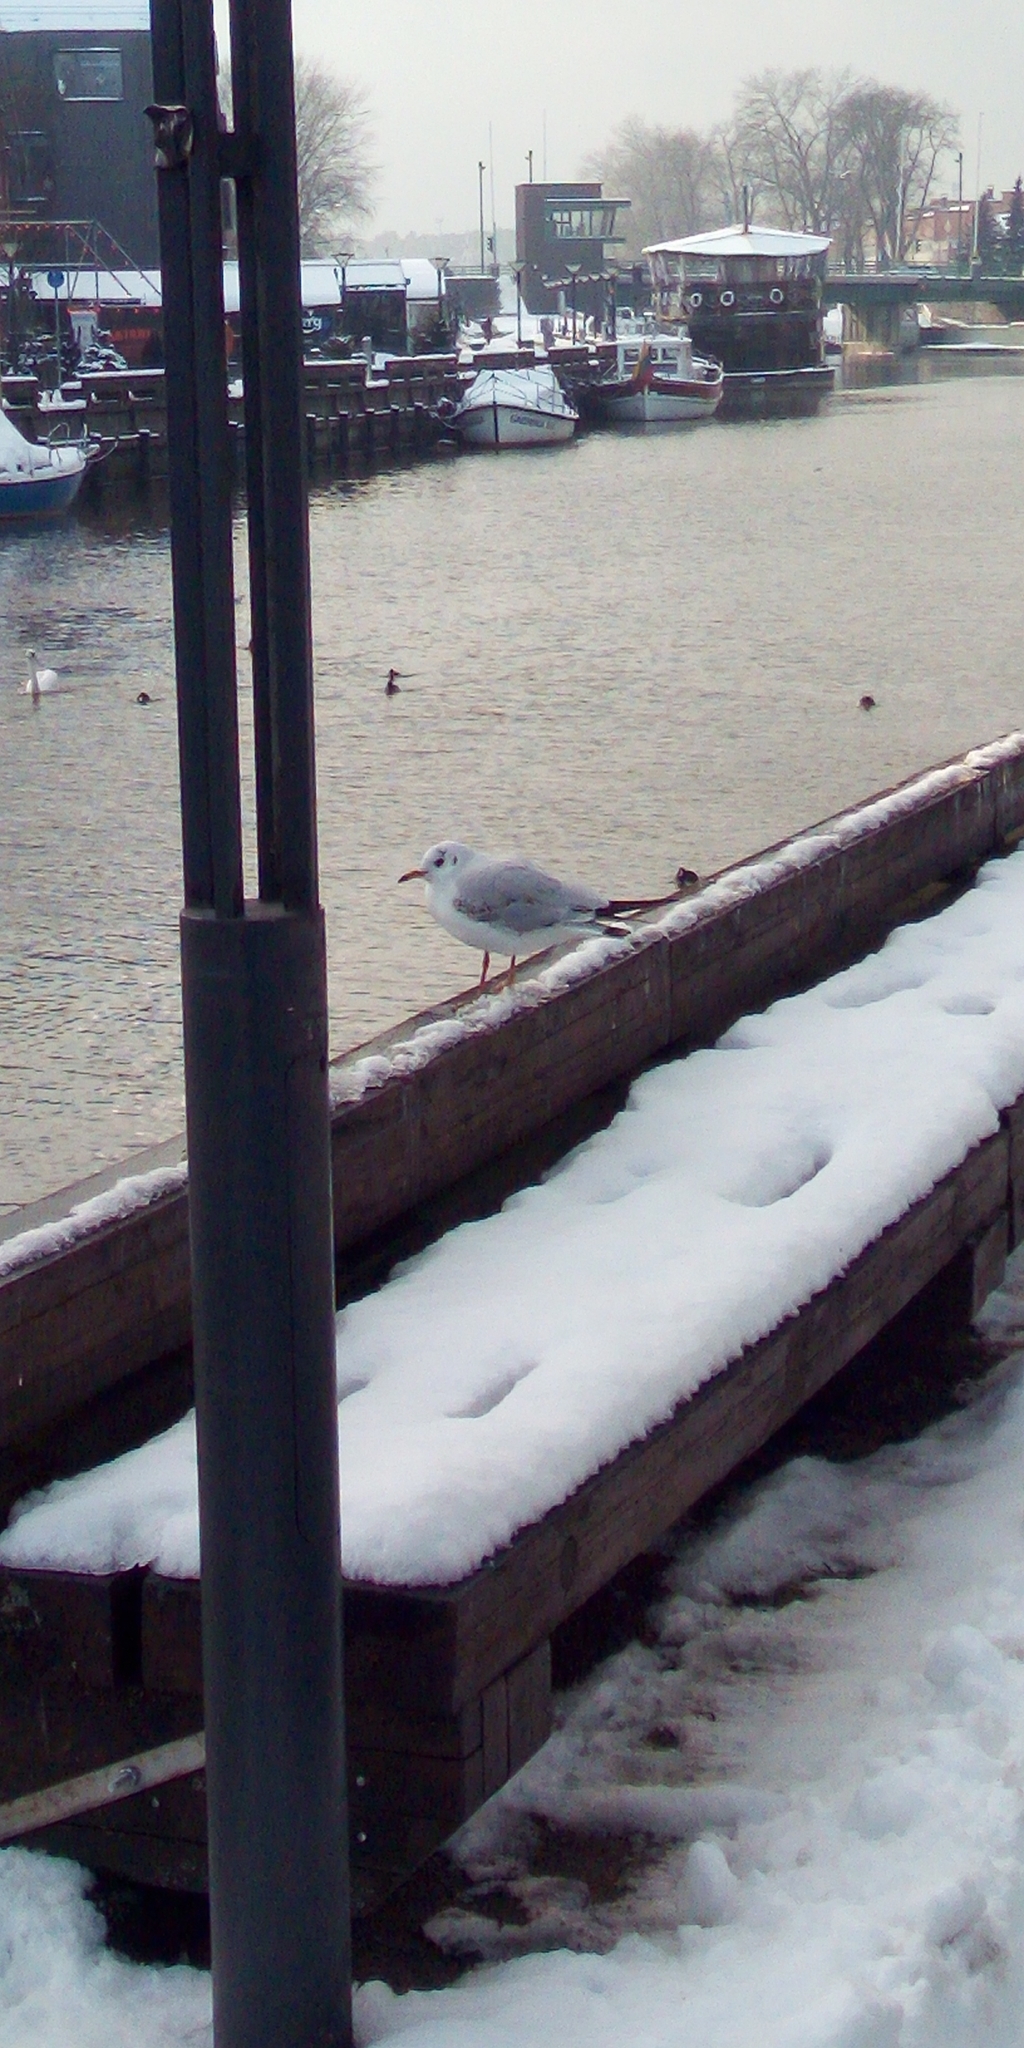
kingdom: Animalia
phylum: Chordata
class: Aves
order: Charadriiformes
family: Laridae
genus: Chroicocephalus
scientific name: Chroicocephalus ridibundus
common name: Black-headed gull
